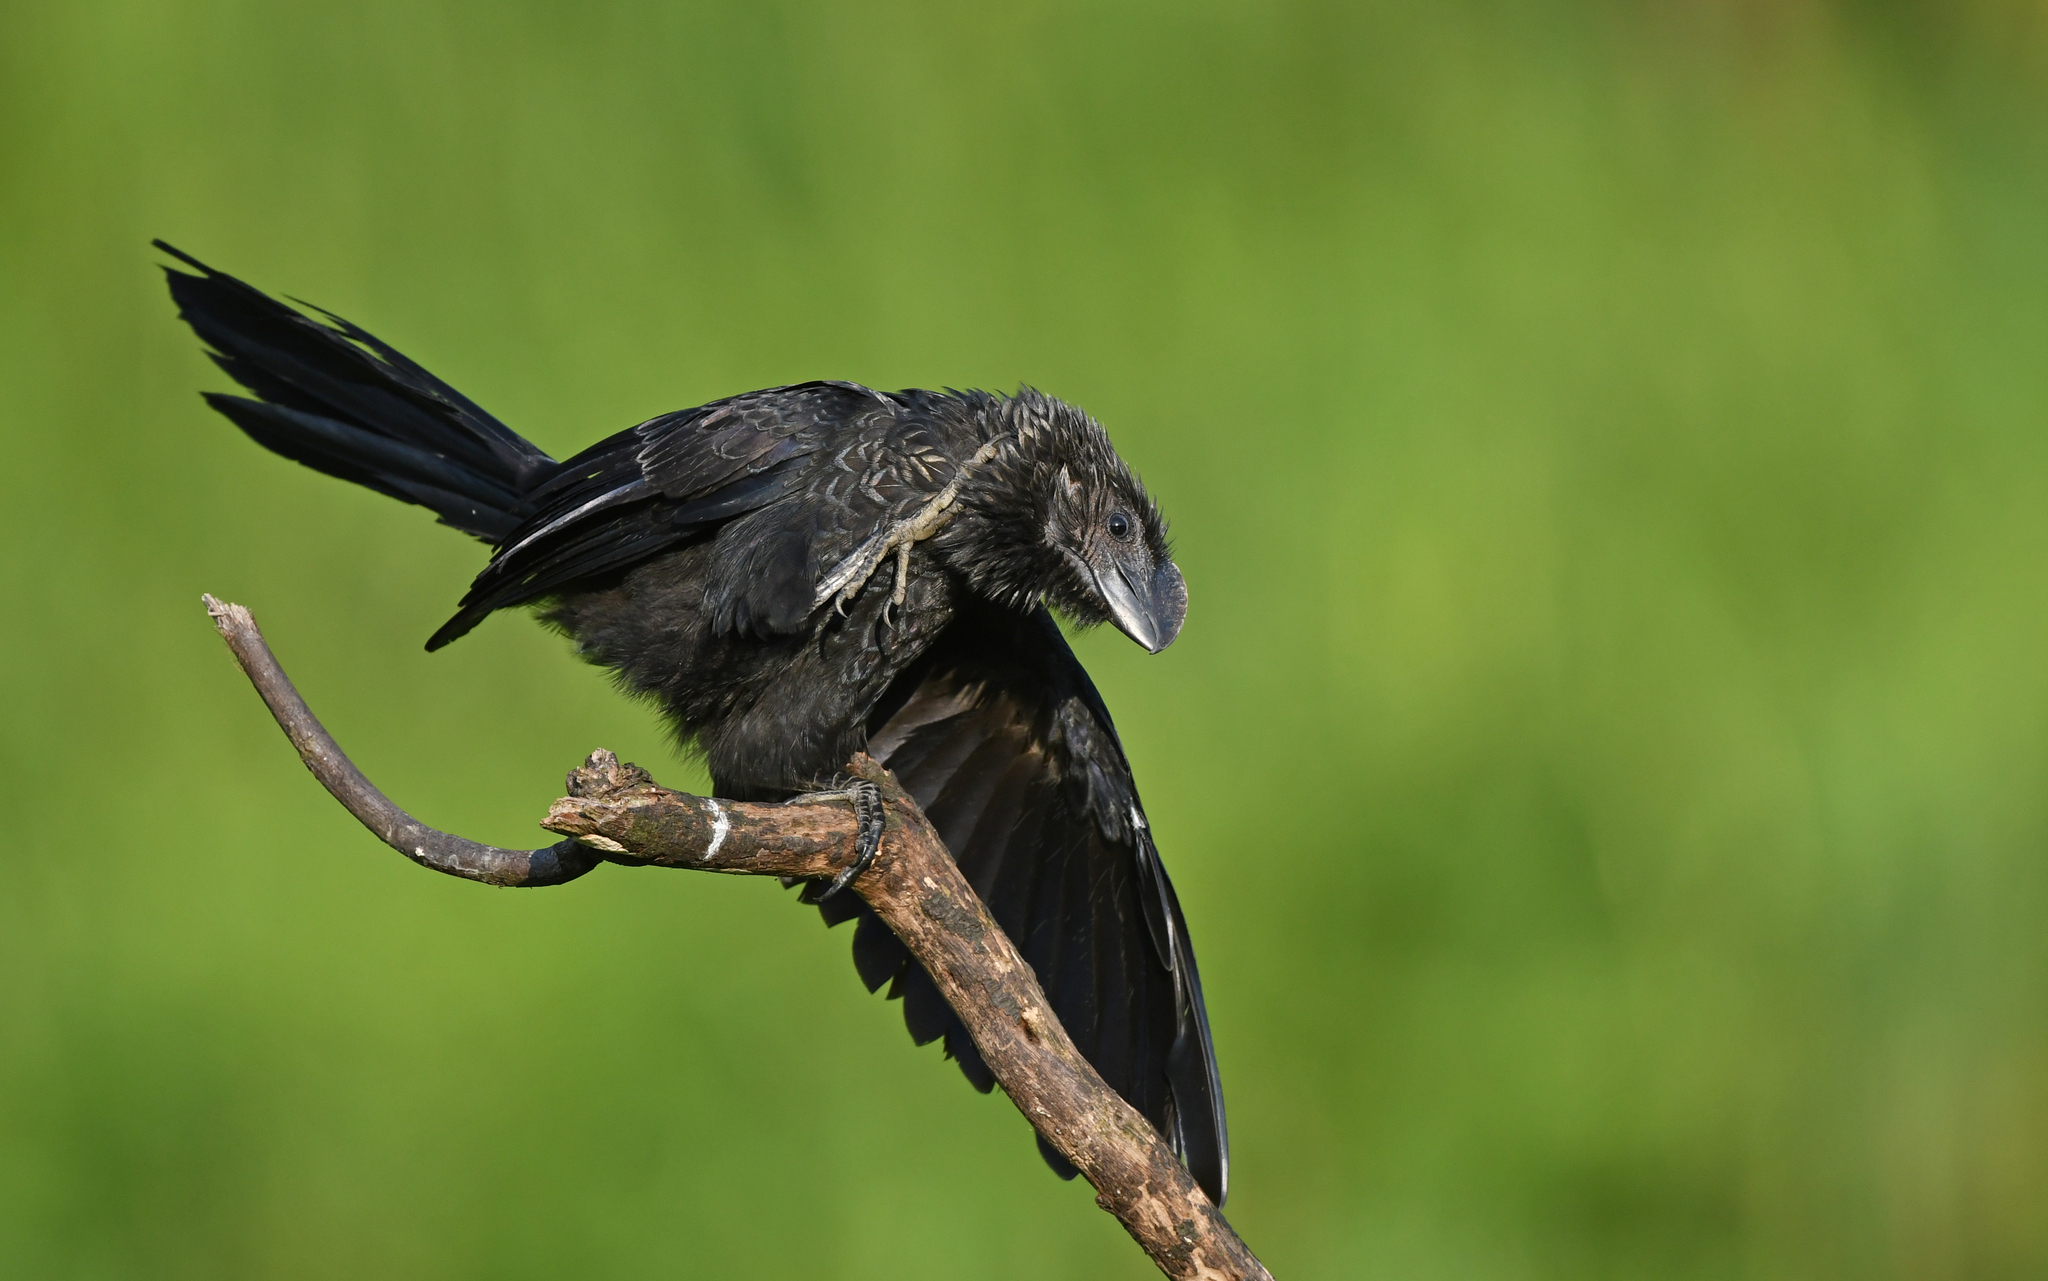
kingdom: Animalia
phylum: Chordata
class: Aves
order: Cuculiformes
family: Cuculidae
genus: Crotophaga
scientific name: Crotophaga ani
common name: Smooth-billed ani
